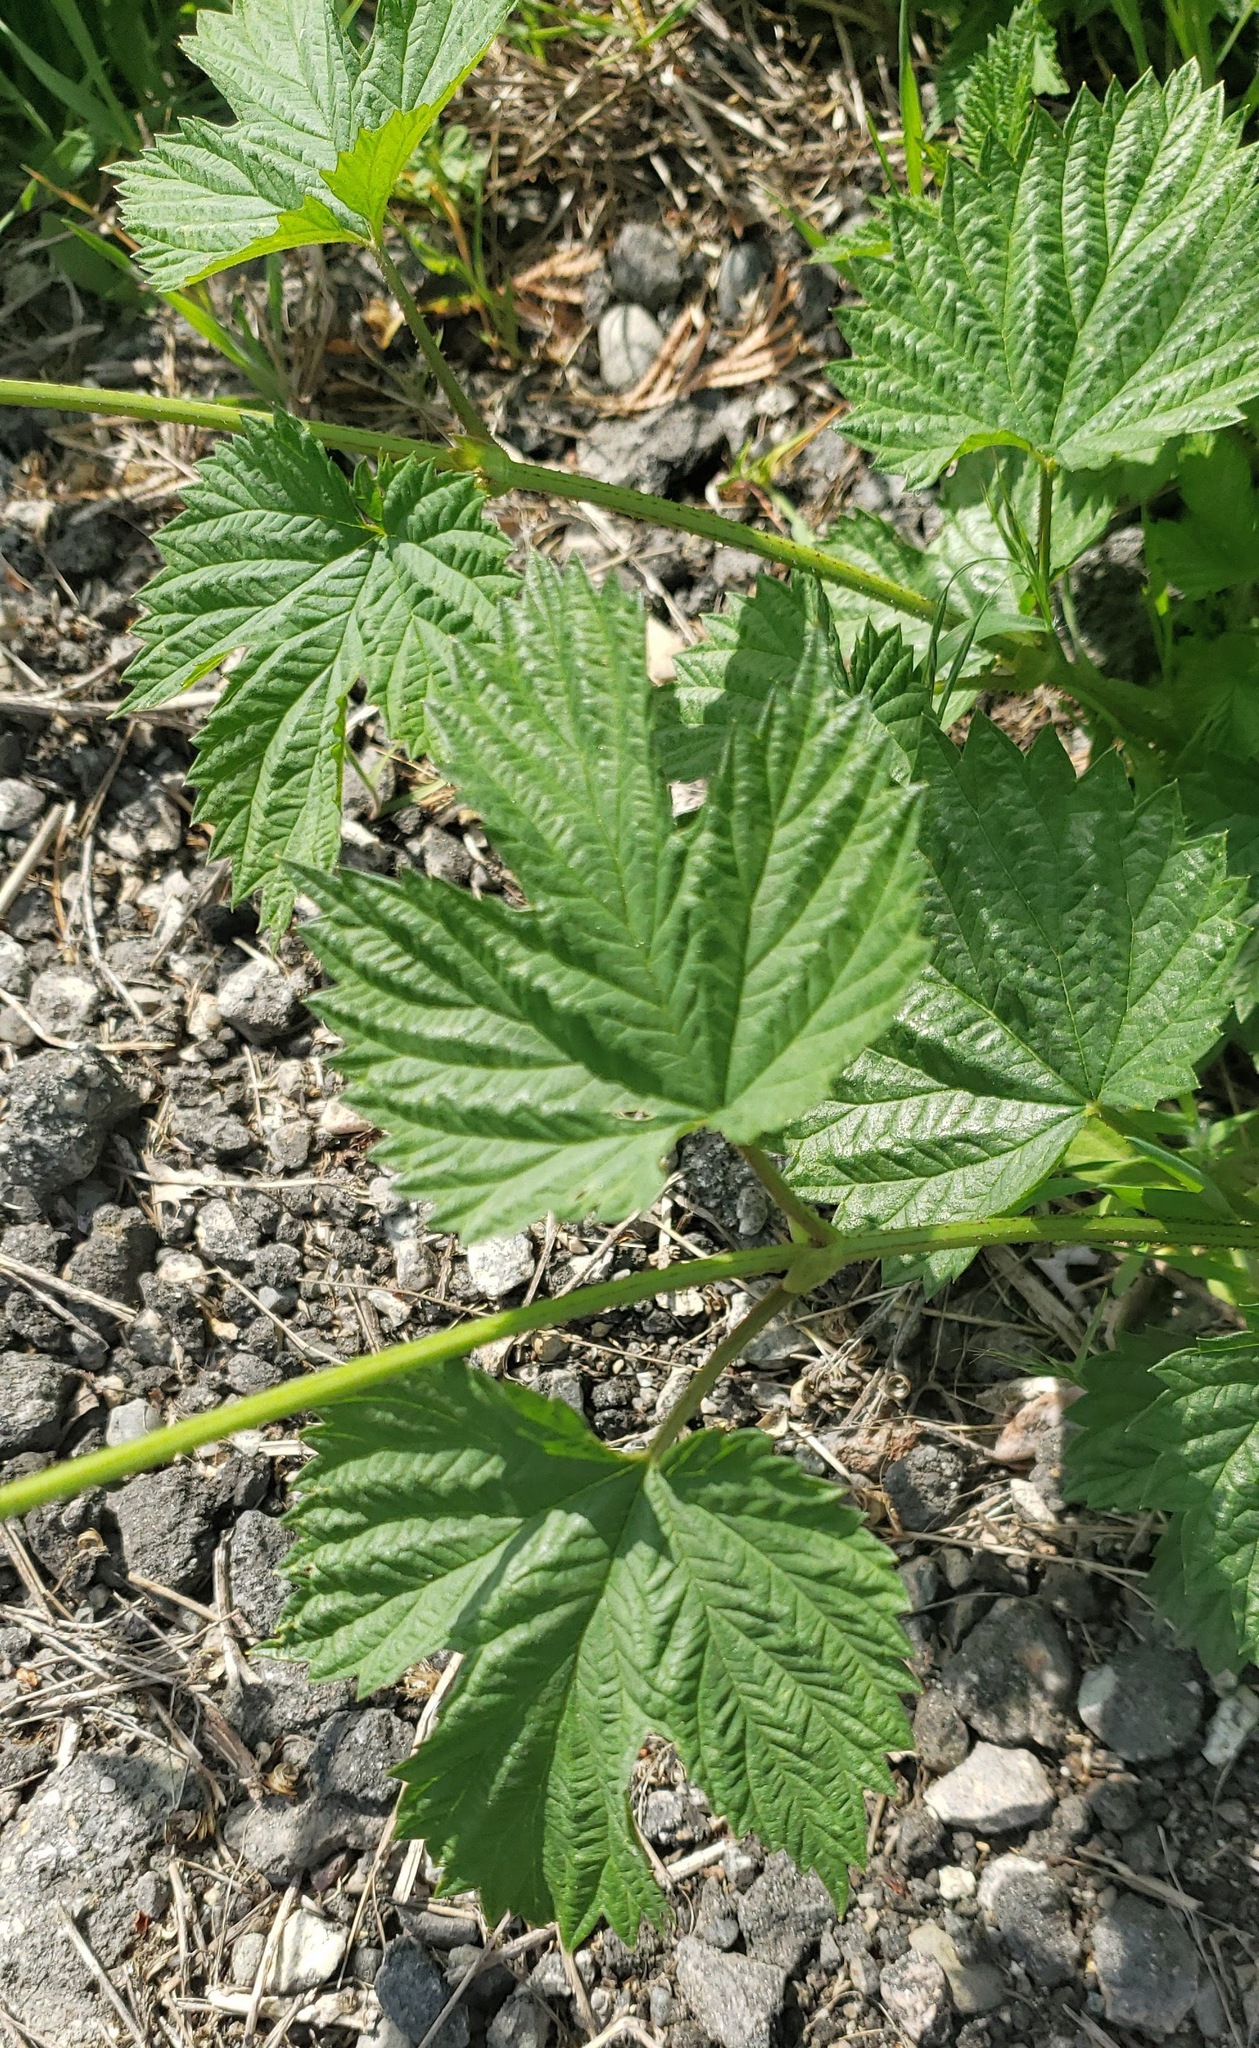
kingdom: Plantae
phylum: Tracheophyta
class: Magnoliopsida
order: Rosales
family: Cannabaceae
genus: Humulus
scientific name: Humulus lupulus
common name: Hop
